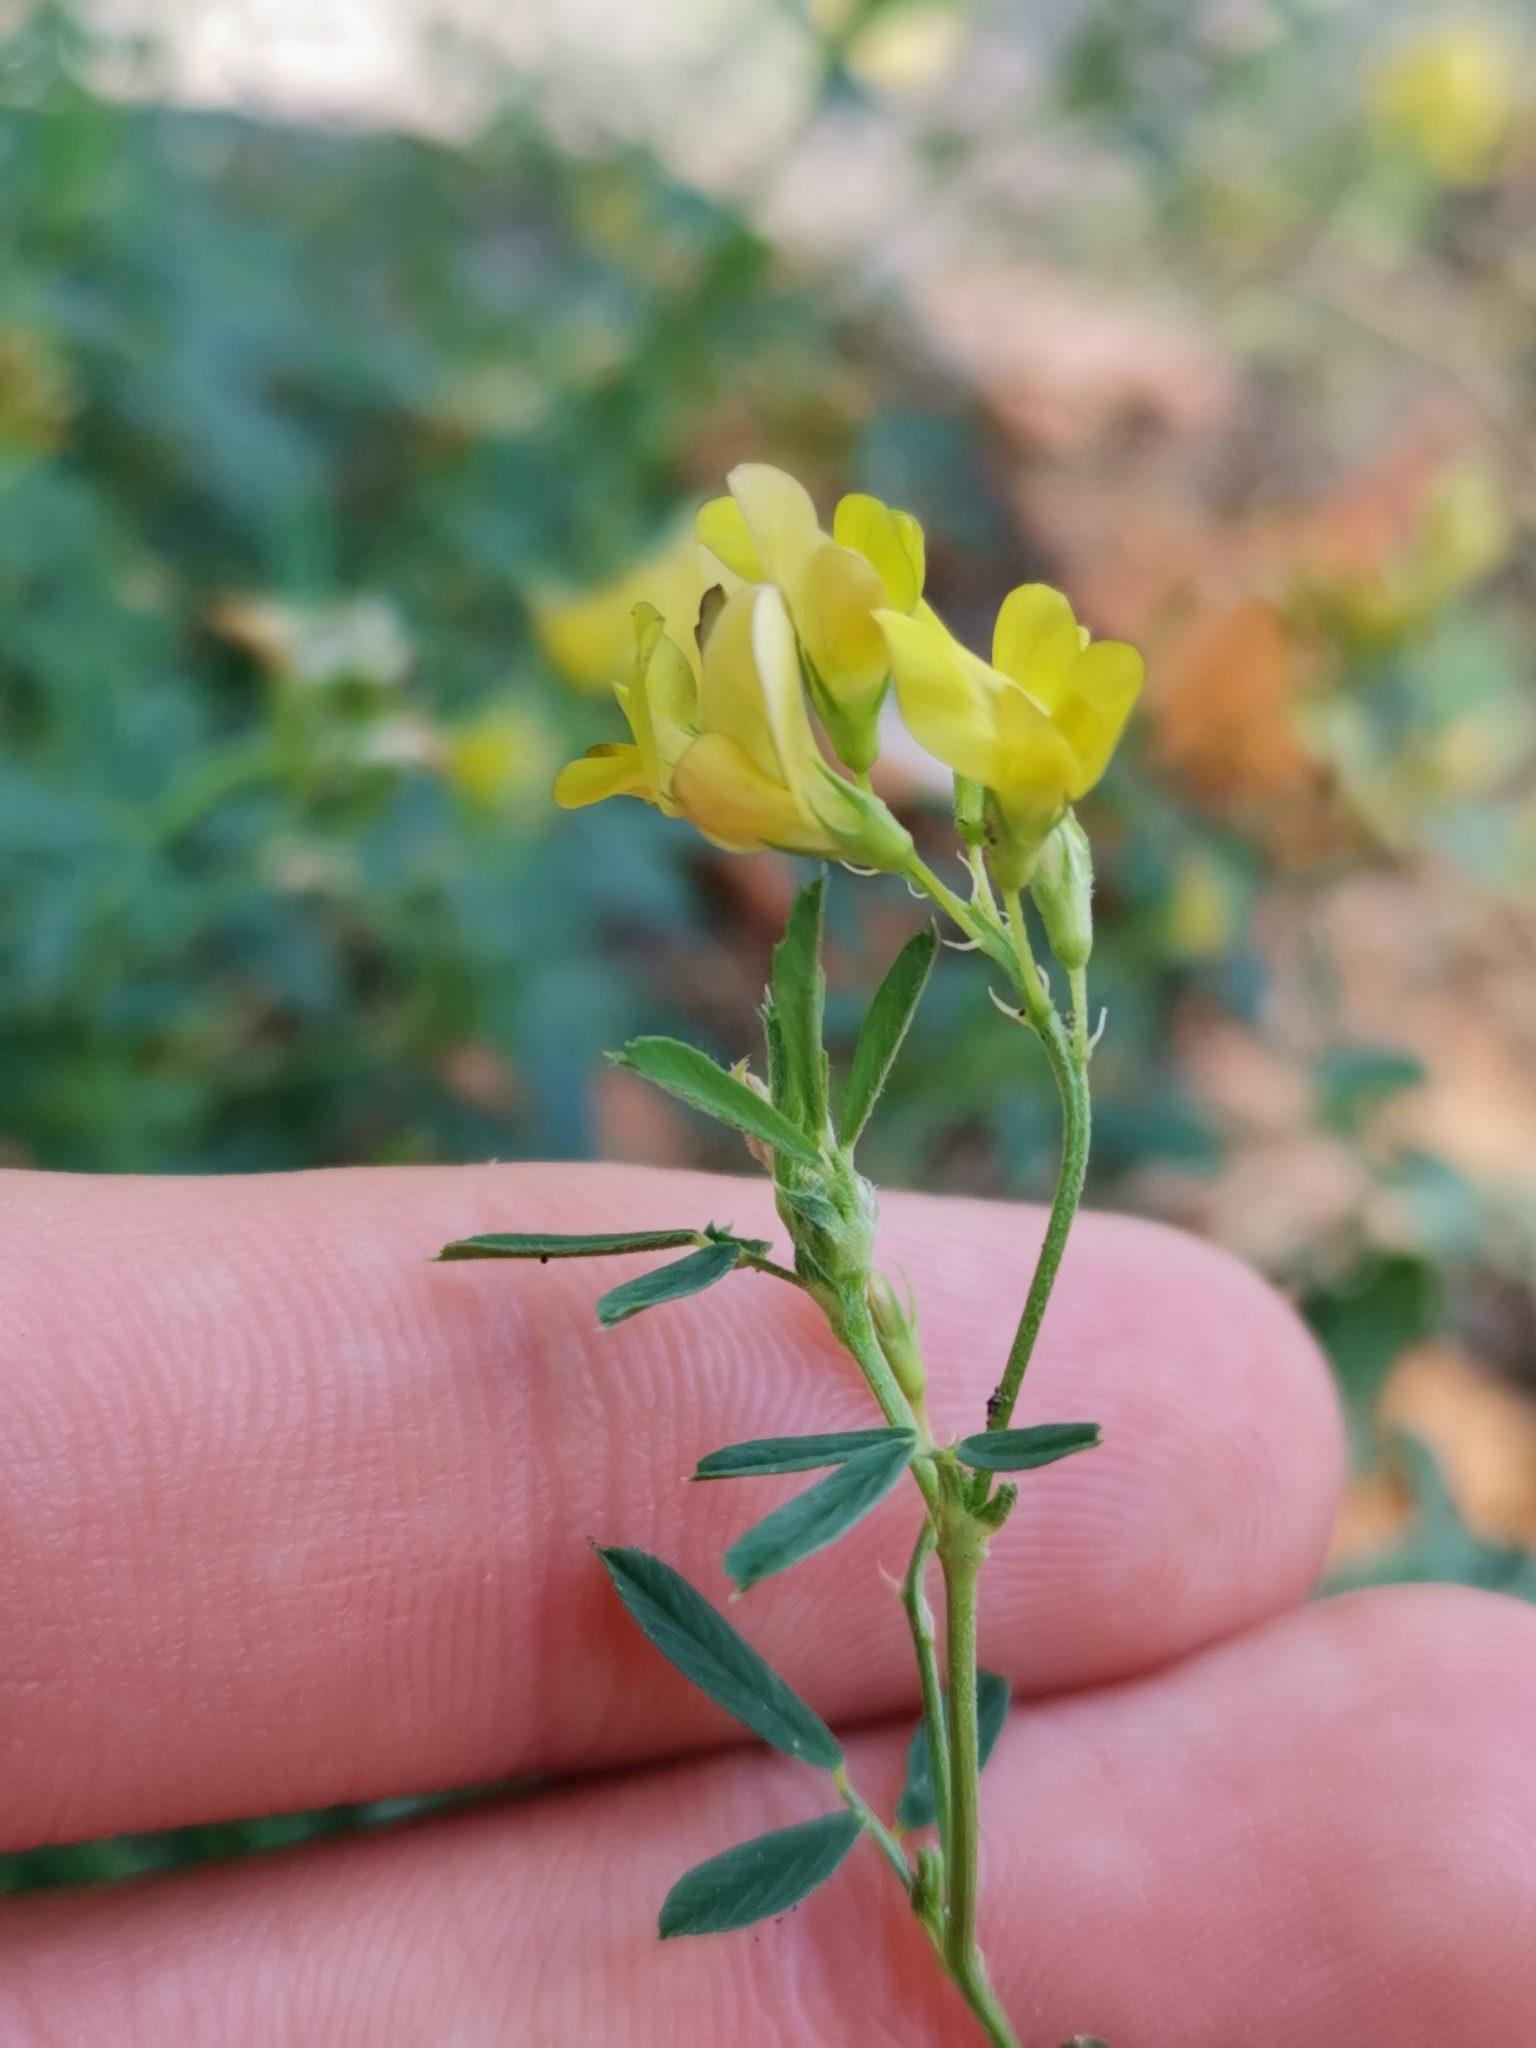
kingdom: Plantae
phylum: Tracheophyta
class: Magnoliopsida
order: Fabales
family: Fabaceae
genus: Medicago
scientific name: Medicago falcata
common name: Sickle medick
